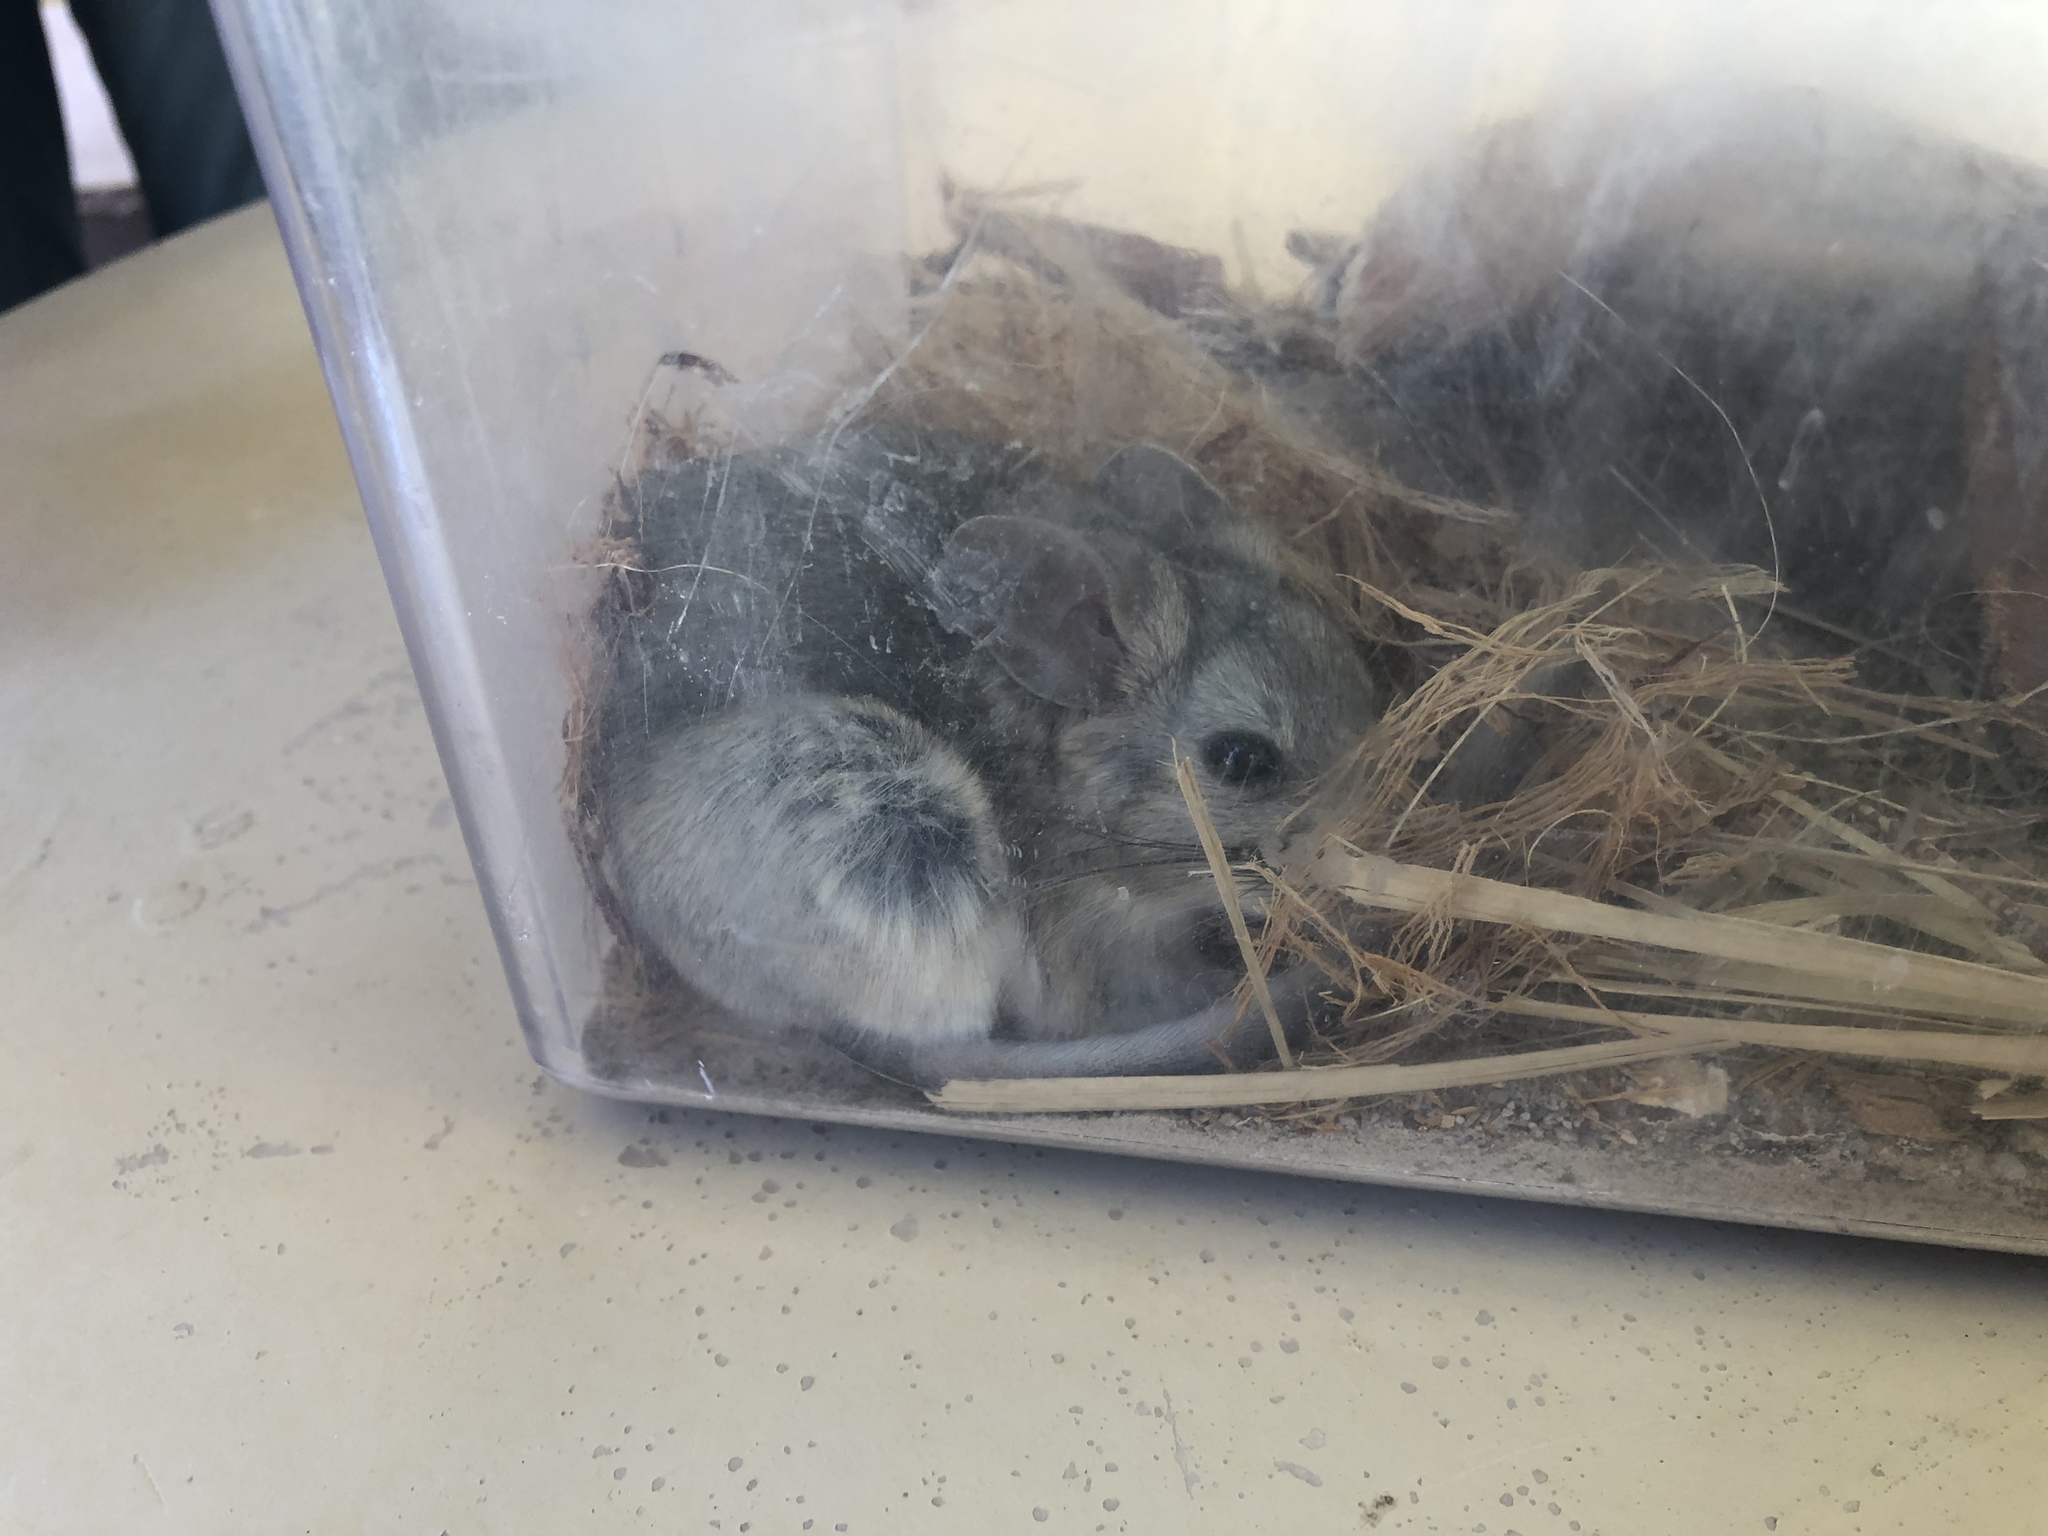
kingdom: Animalia
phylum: Chordata
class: Mammalia
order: Rodentia
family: Cricetidae
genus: Neotoma
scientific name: Neotoma lepida
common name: Desert woodrat
